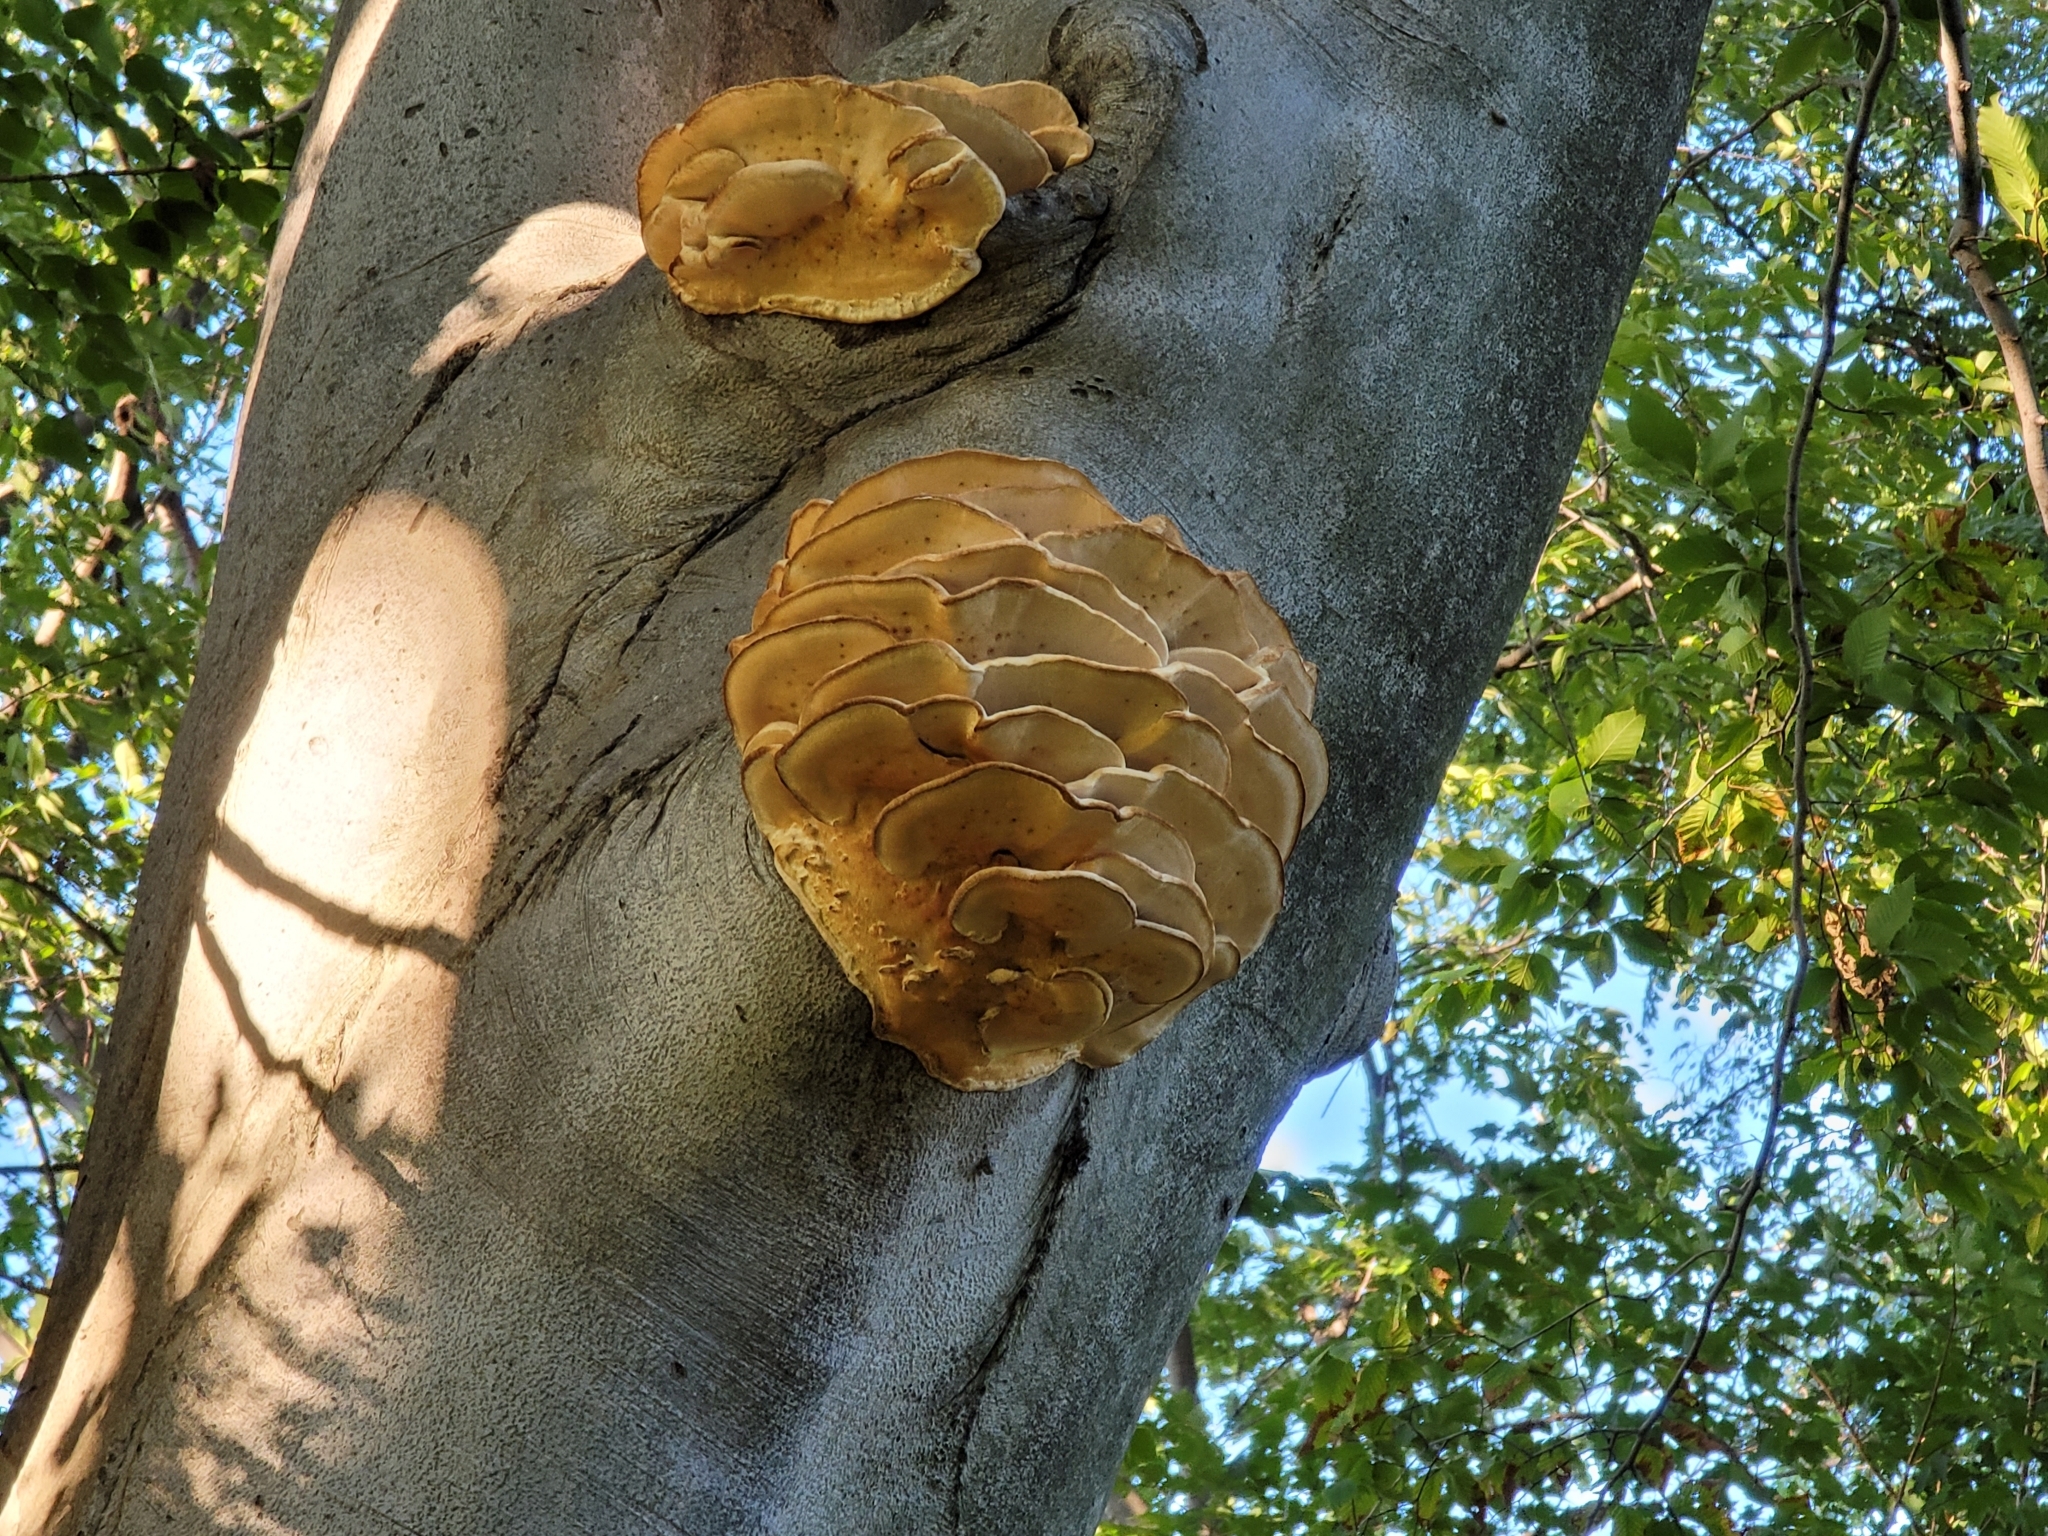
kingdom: Fungi
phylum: Basidiomycota
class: Agaricomycetes
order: Polyporales
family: Meruliaceae
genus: Climacodon
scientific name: Climacodon septentrionalis
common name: Northern tooth
